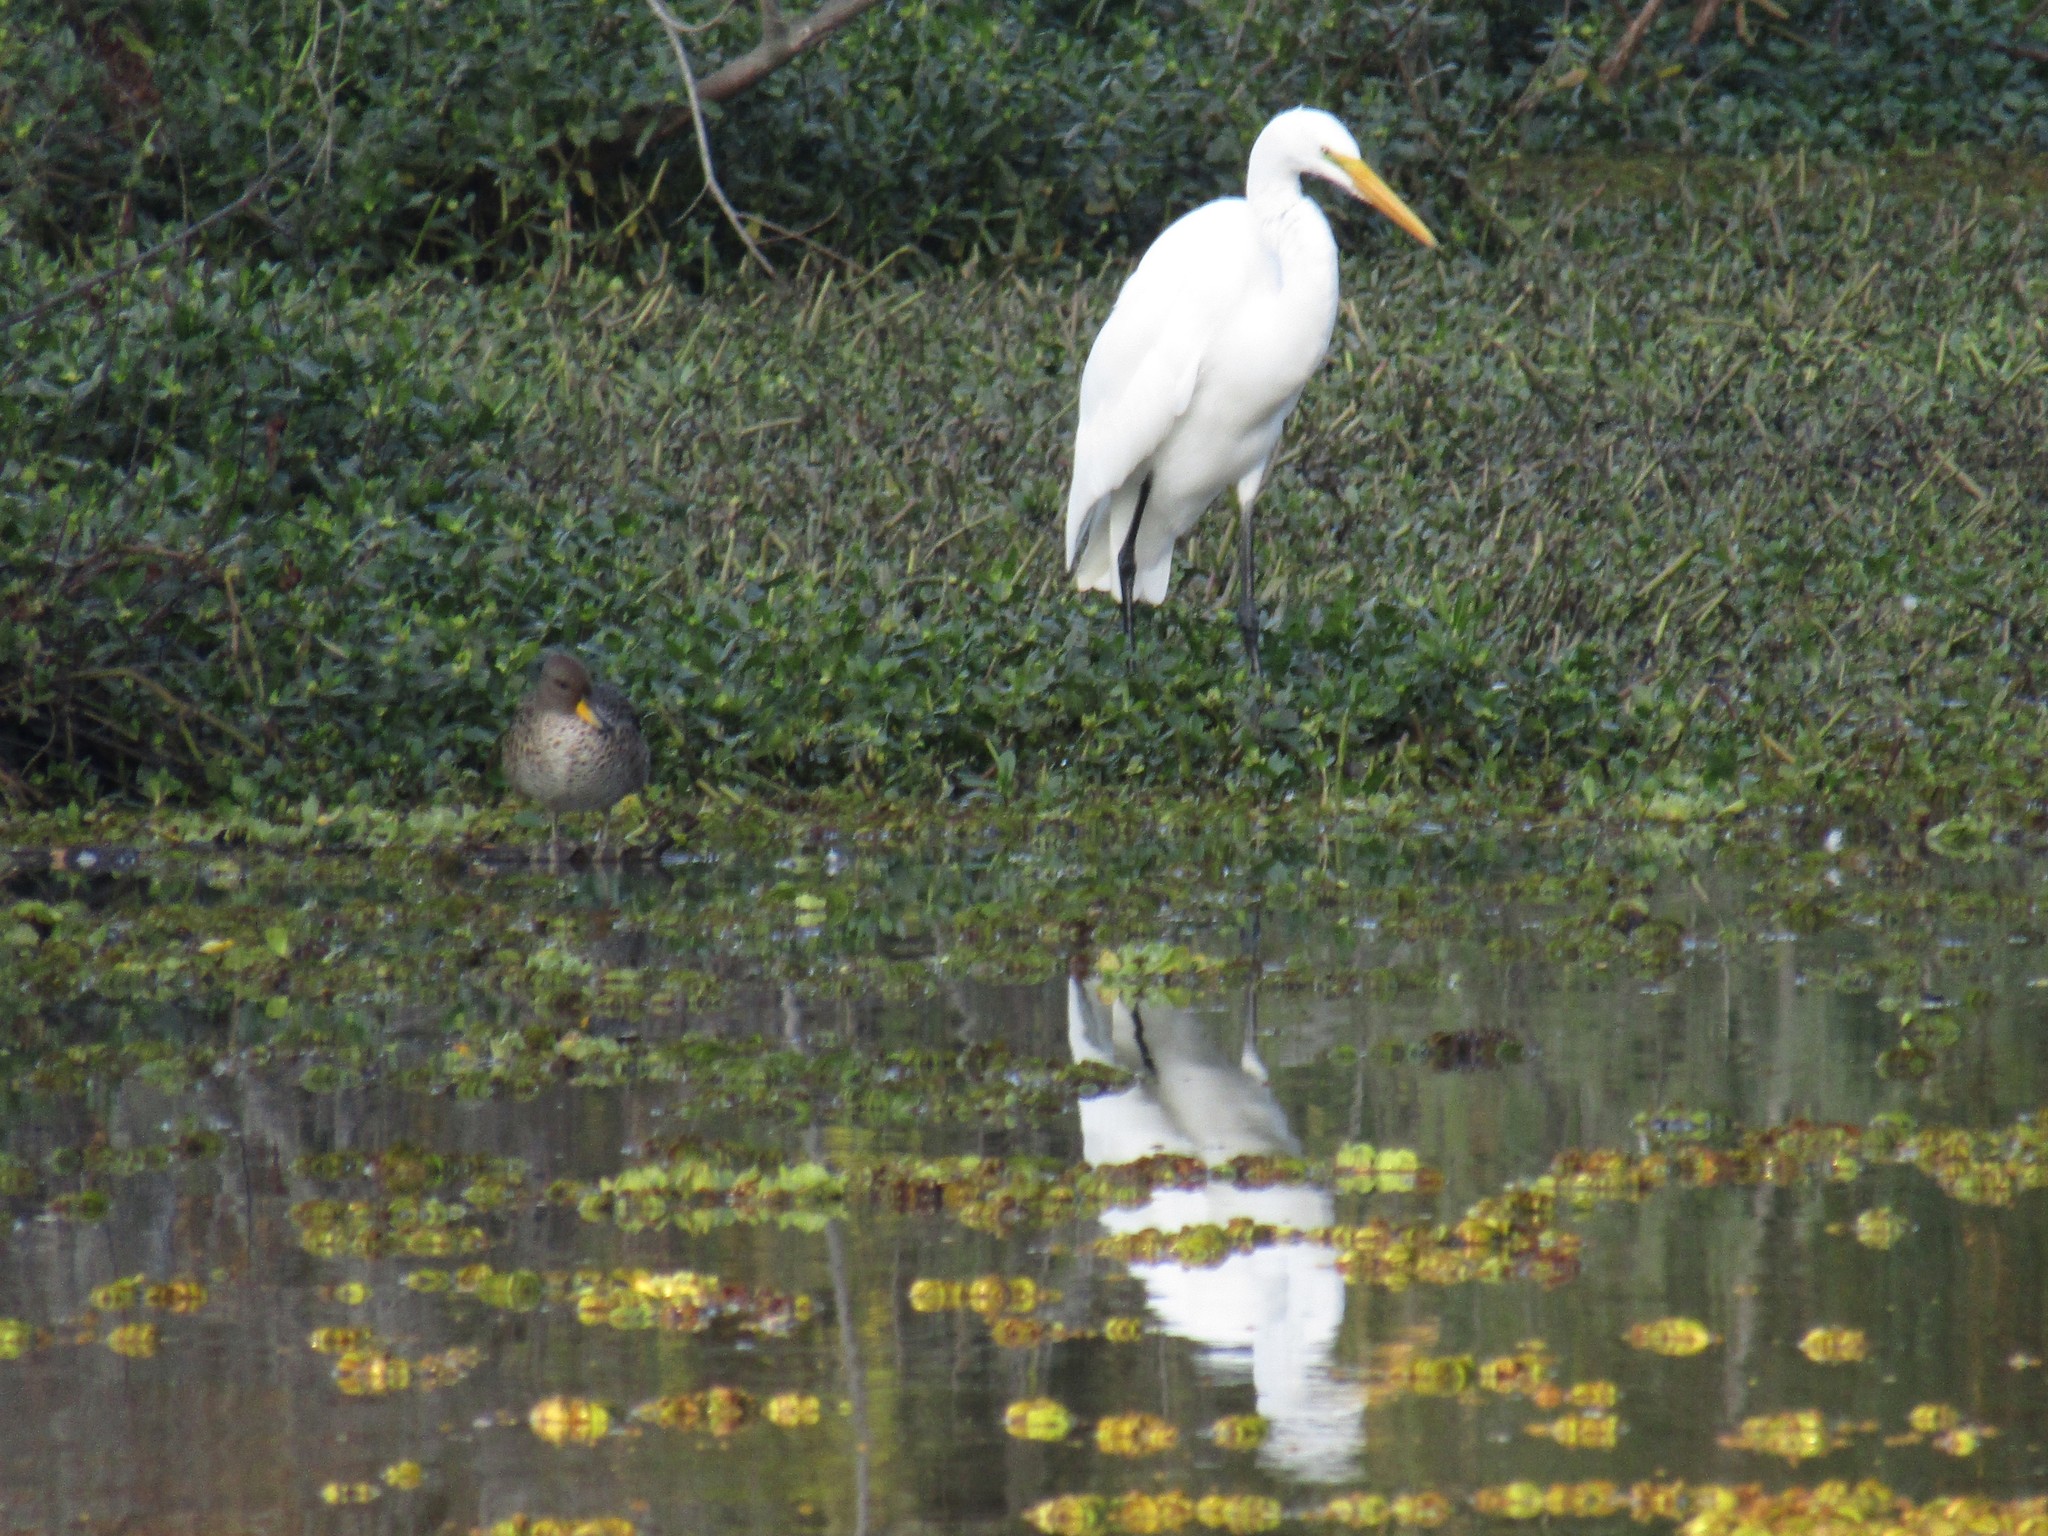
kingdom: Animalia
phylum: Chordata
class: Aves
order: Pelecaniformes
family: Ardeidae
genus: Ardea
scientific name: Ardea alba
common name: Great egret
